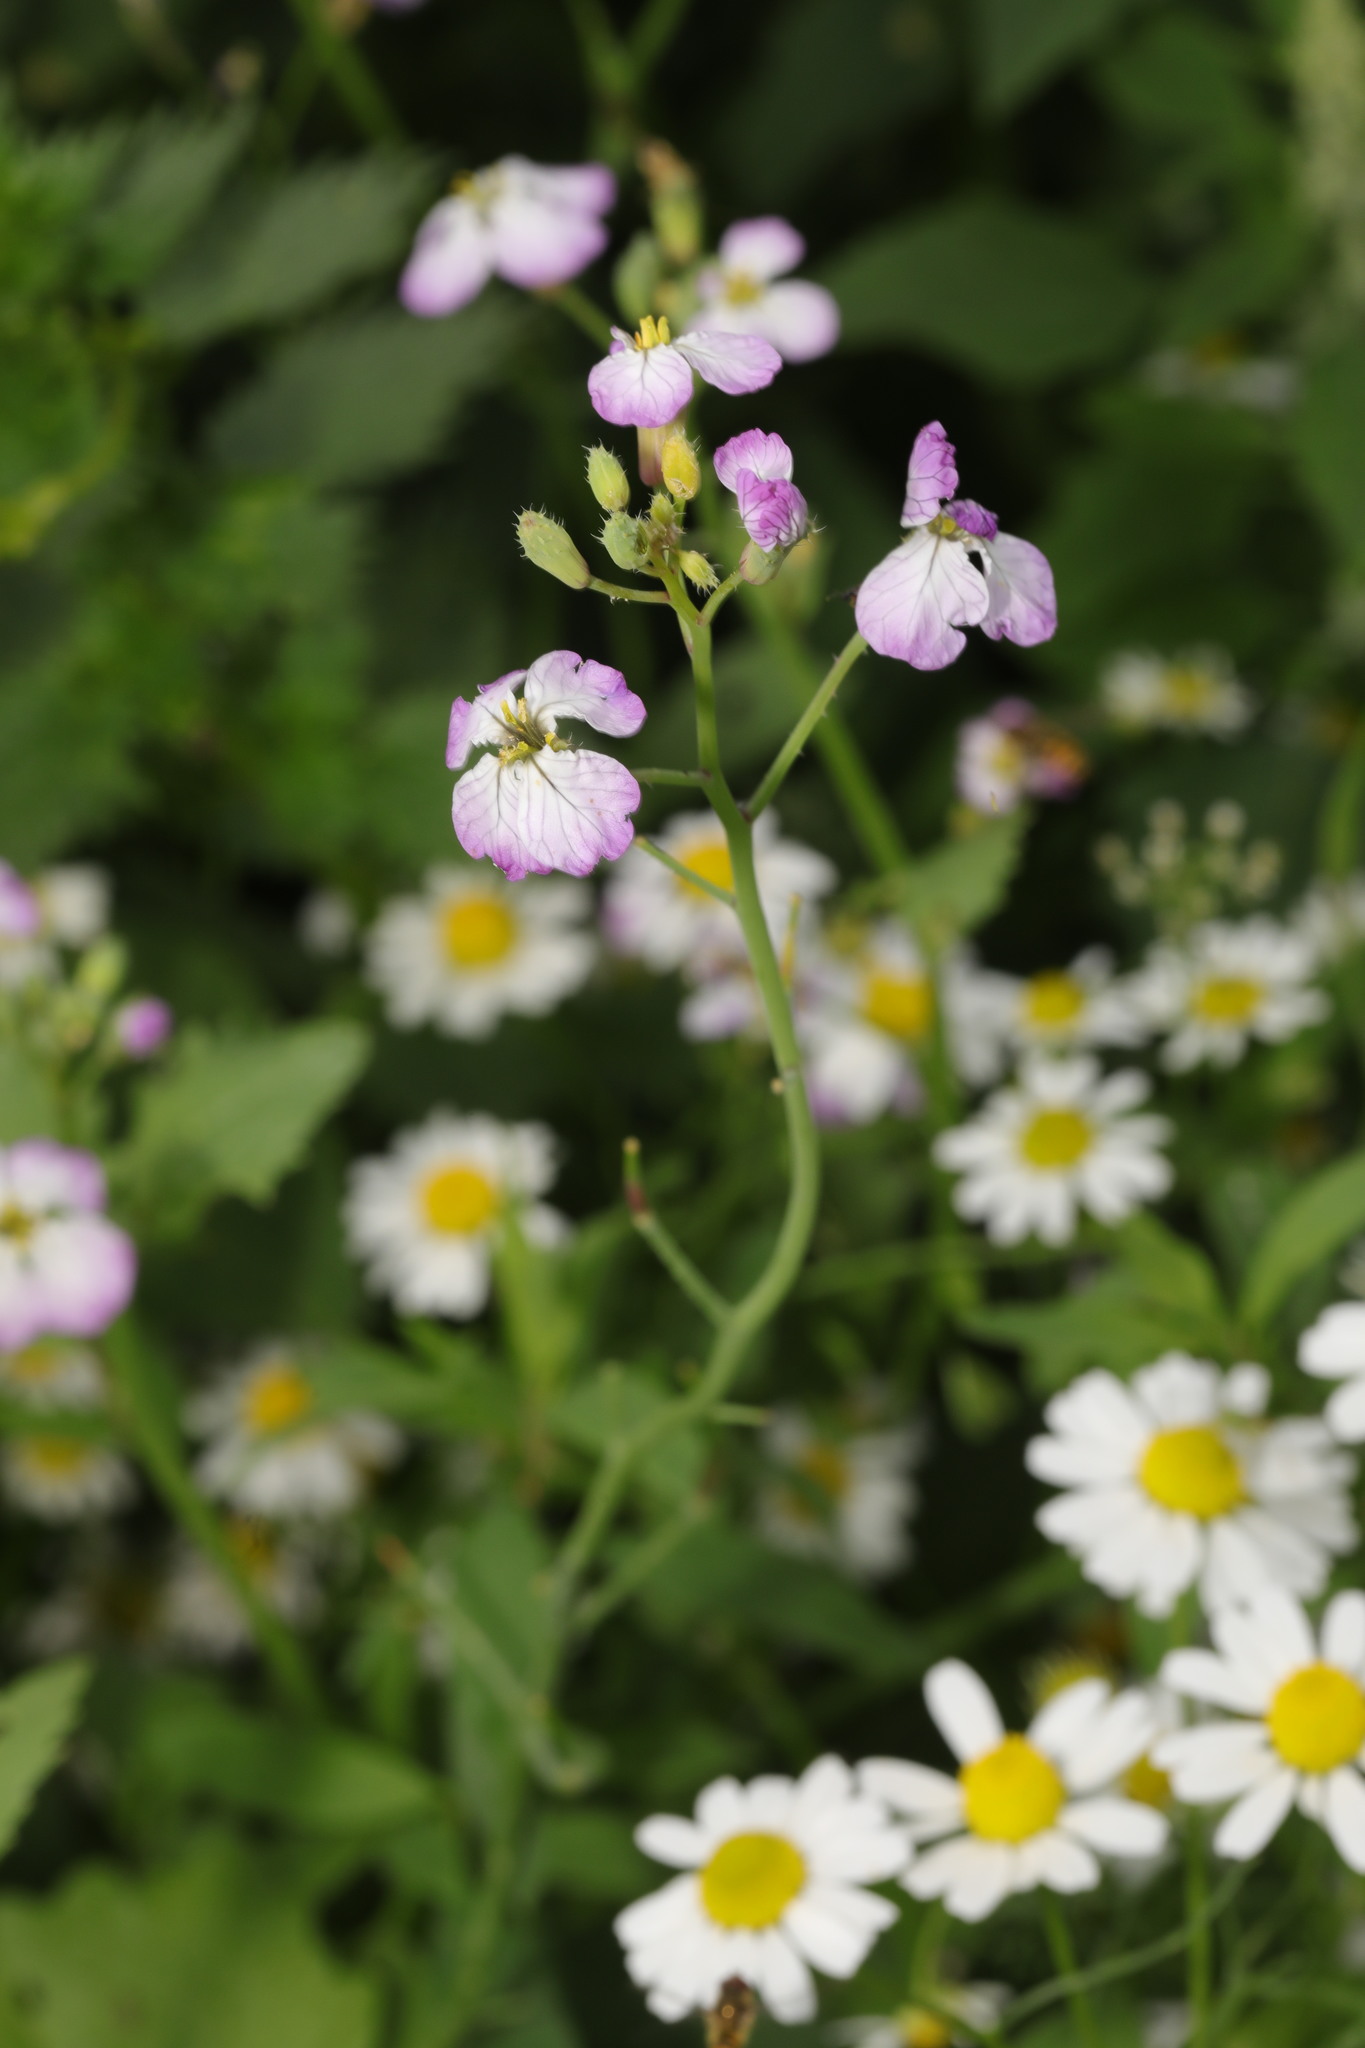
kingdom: Plantae
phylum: Tracheophyta
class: Magnoliopsida
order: Brassicales
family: Brassicaceae
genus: Raphanus
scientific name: Raphanus sativus
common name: Cultivated radish
